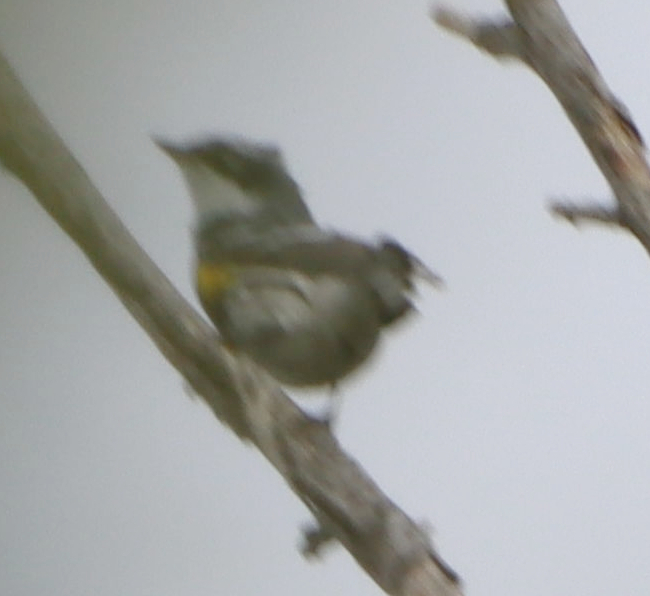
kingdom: Animalia
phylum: Chordata
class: Aves
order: Passeriformes
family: Parulidae
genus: Setophaga
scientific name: Setophaga coronata
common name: Myrtle warbler
